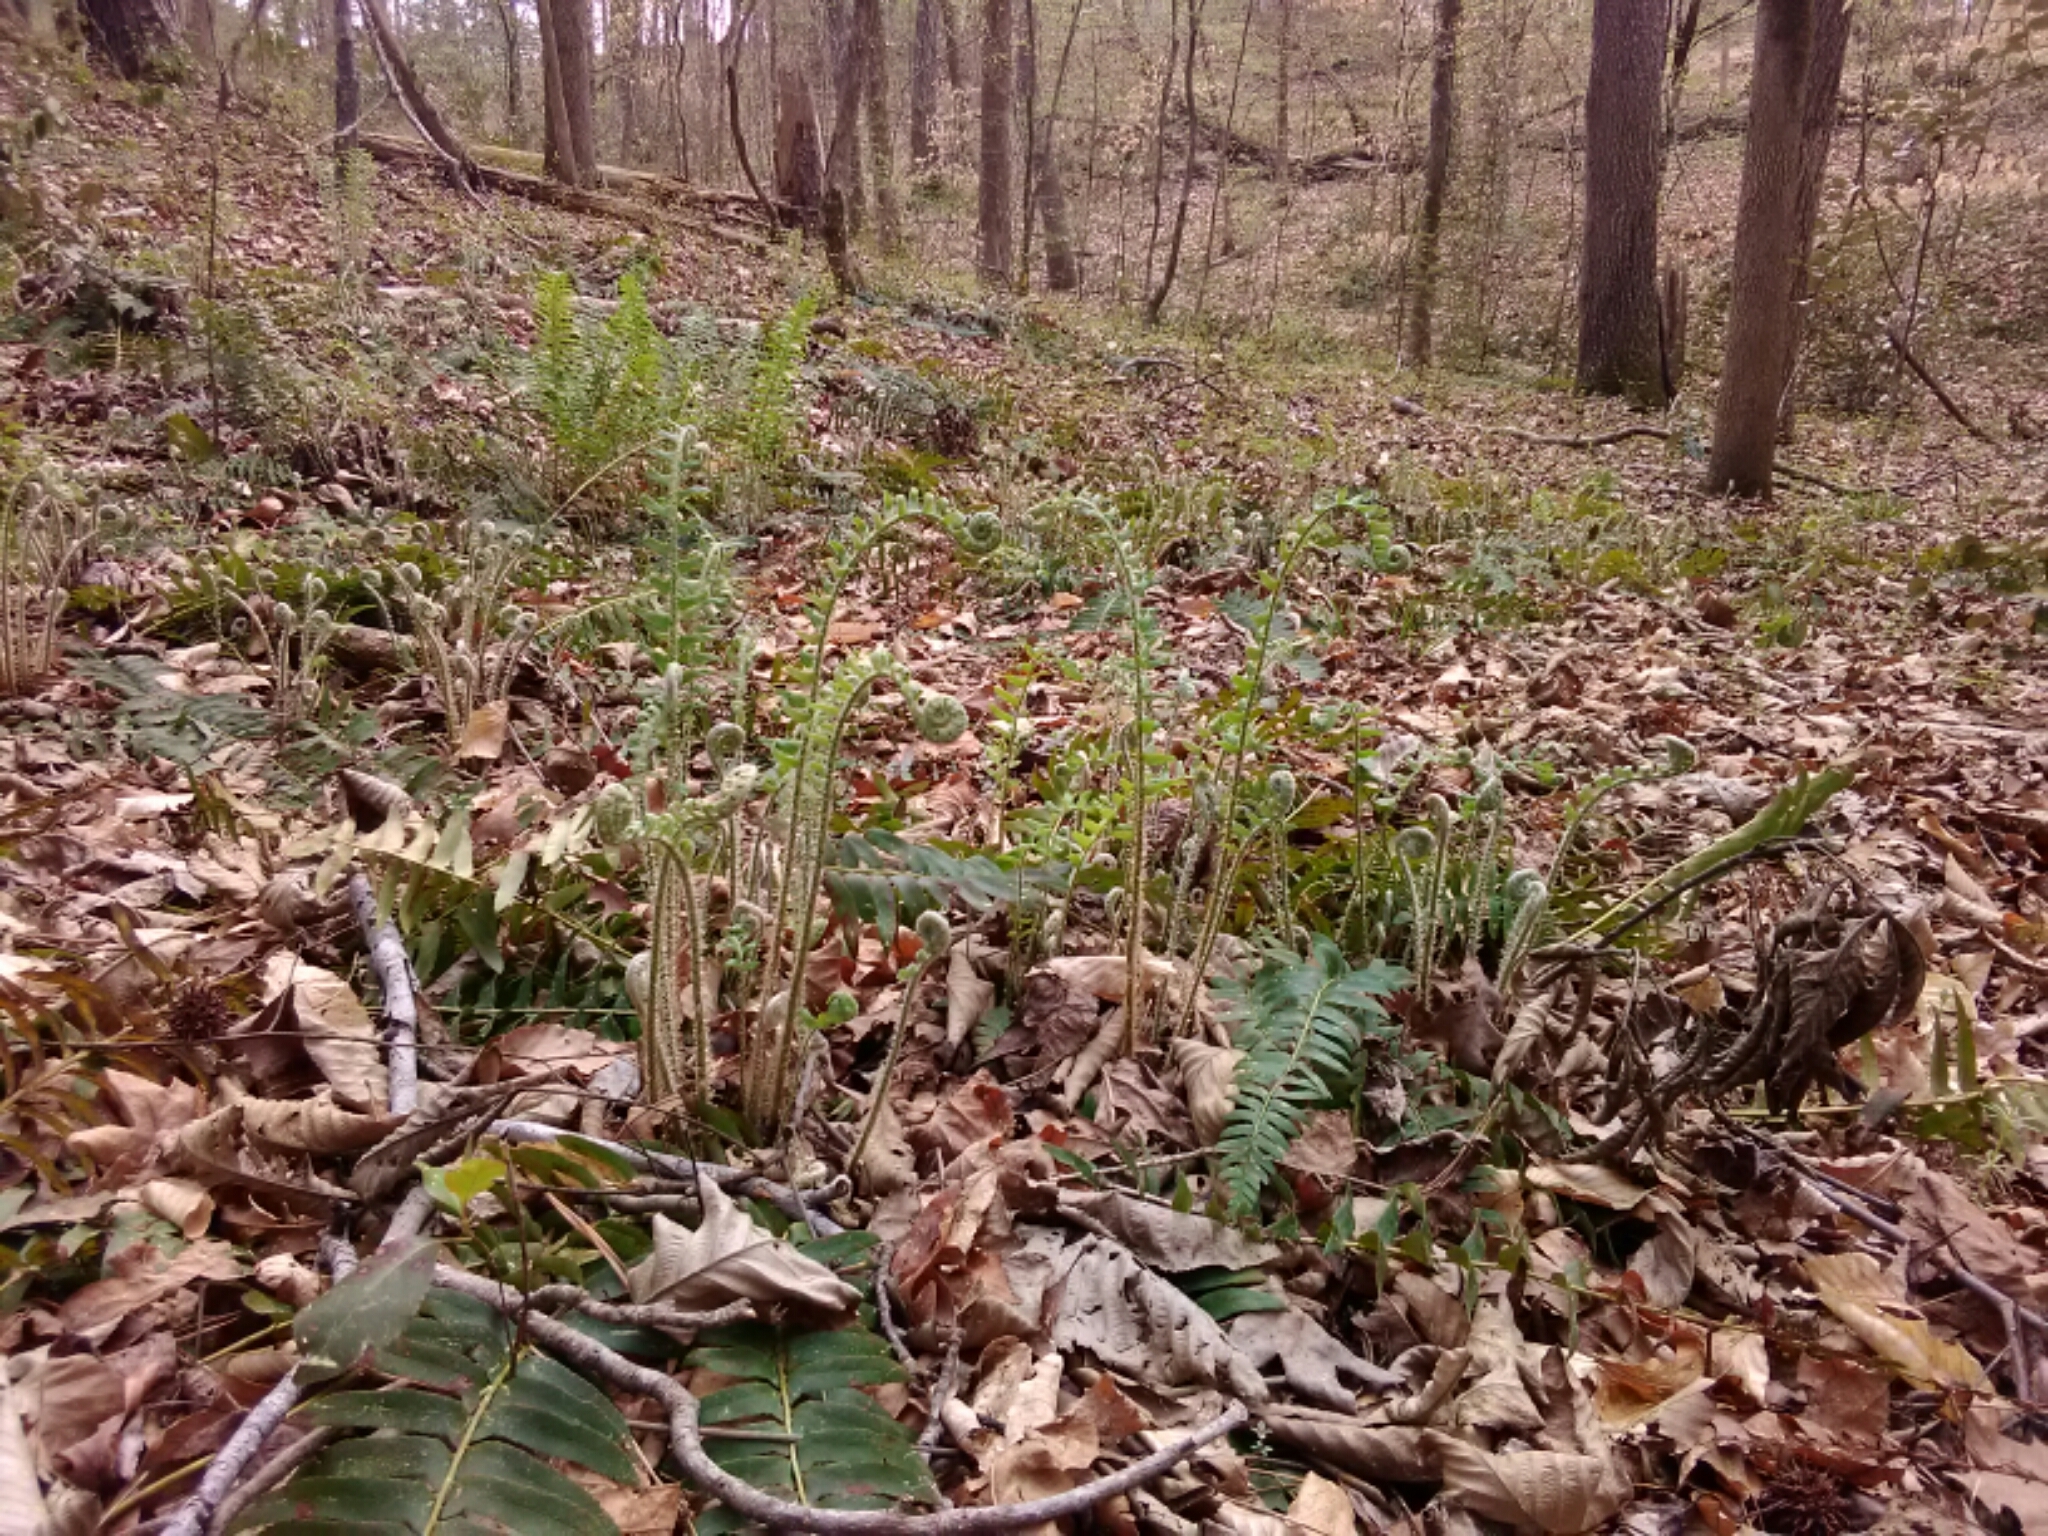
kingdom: Plantae
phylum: Tracheophyta
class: Polypodiopsida
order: Polypodiales
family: Dryopteridaceae
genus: Polystichum
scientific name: Polystichum acrostichoides
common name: Christmas fern
